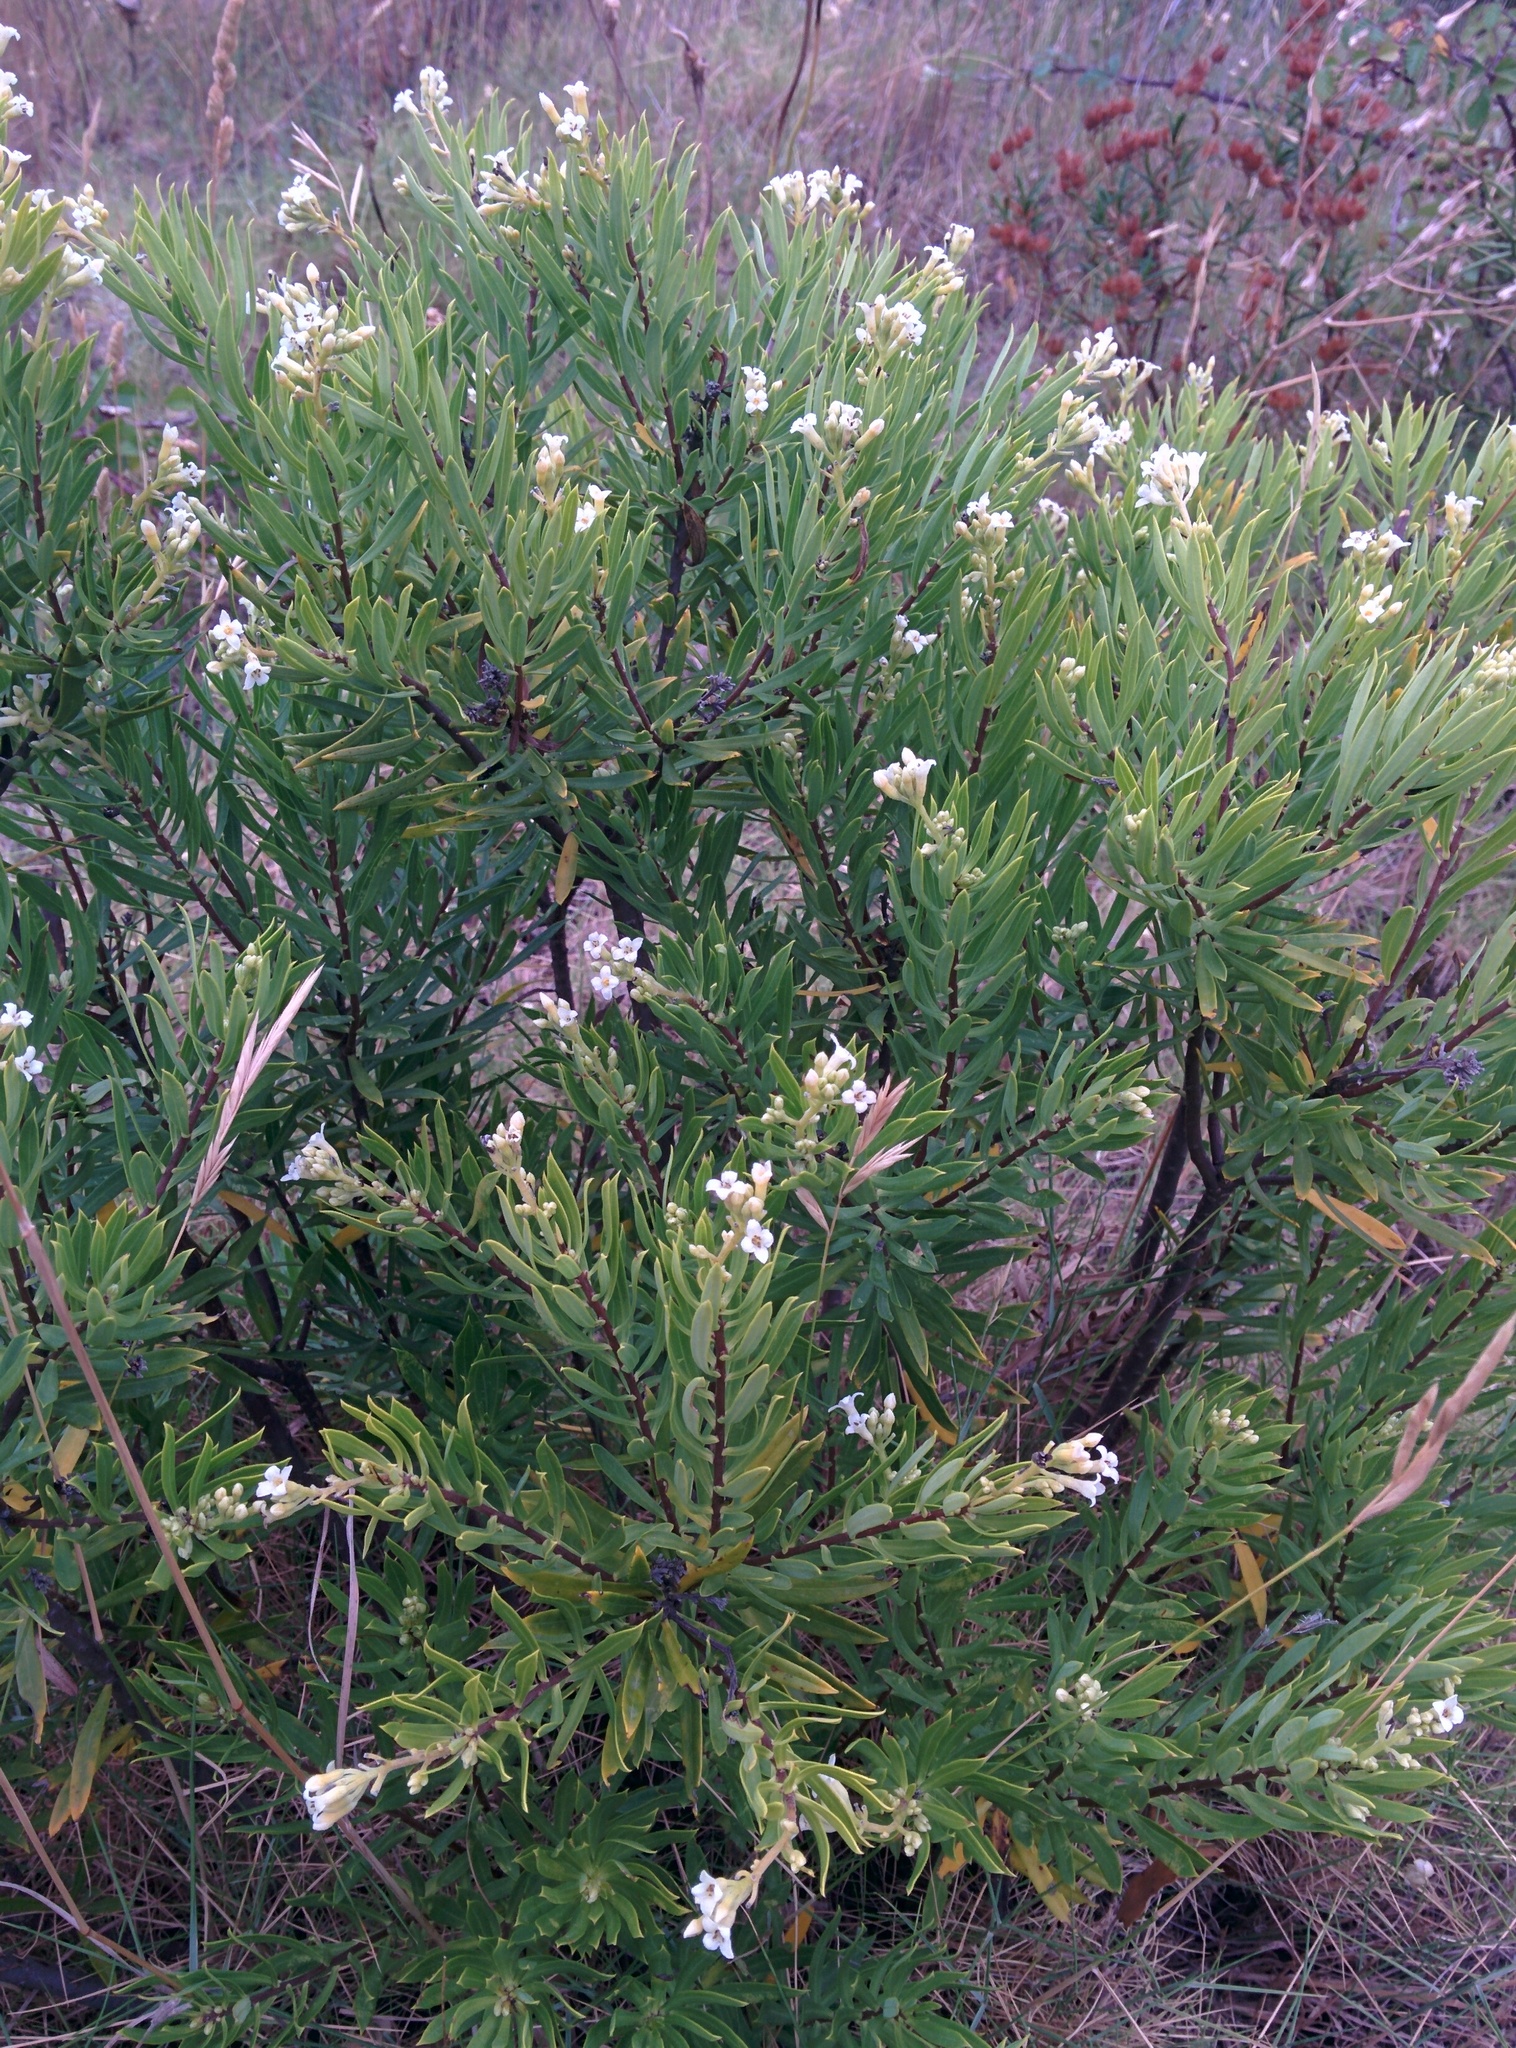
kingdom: Plantae
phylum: Tracheophyta
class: Magnoliopsida
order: Malvales
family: Thymelaeaceae
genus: Daphne
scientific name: Daphne gnidium
